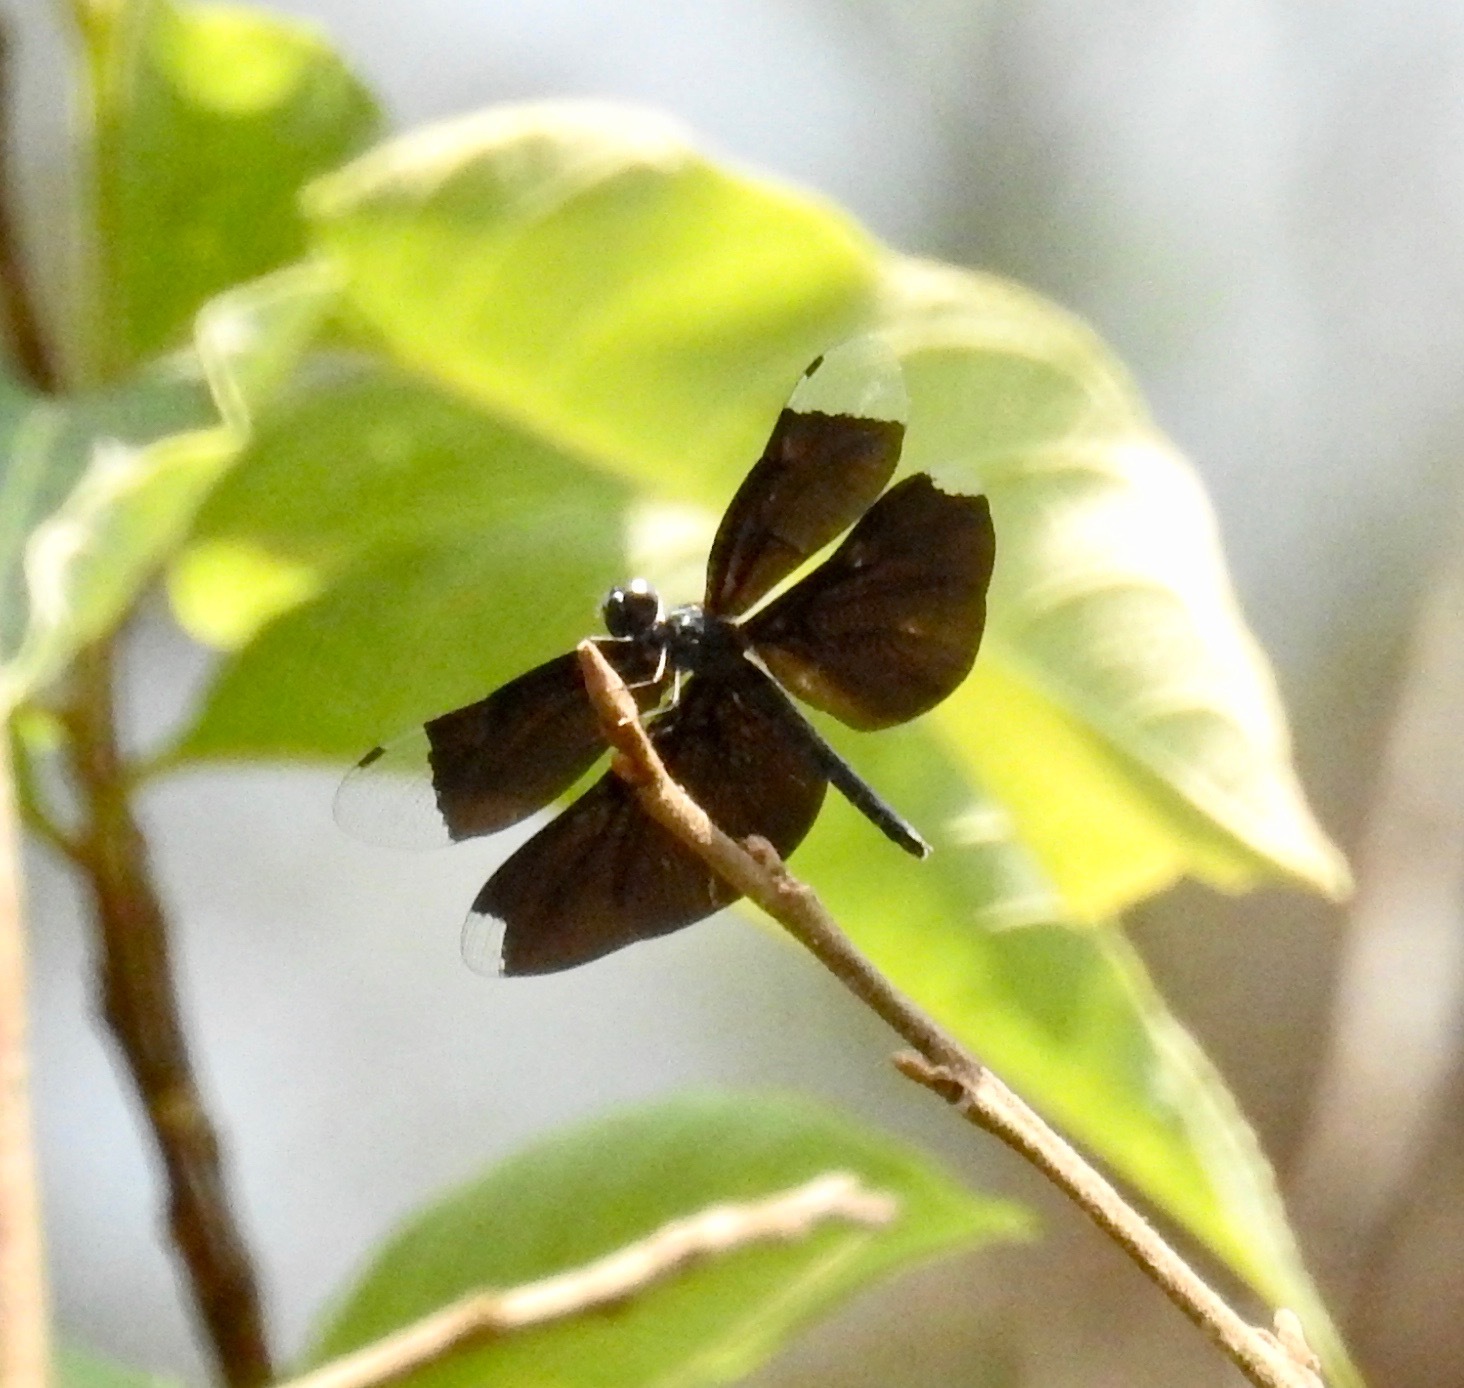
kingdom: Animalia
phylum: Arthropoda
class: Insecta
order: Odonata
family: Libellulidae
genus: Rhyothemis
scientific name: Rhyothemis plutonia
